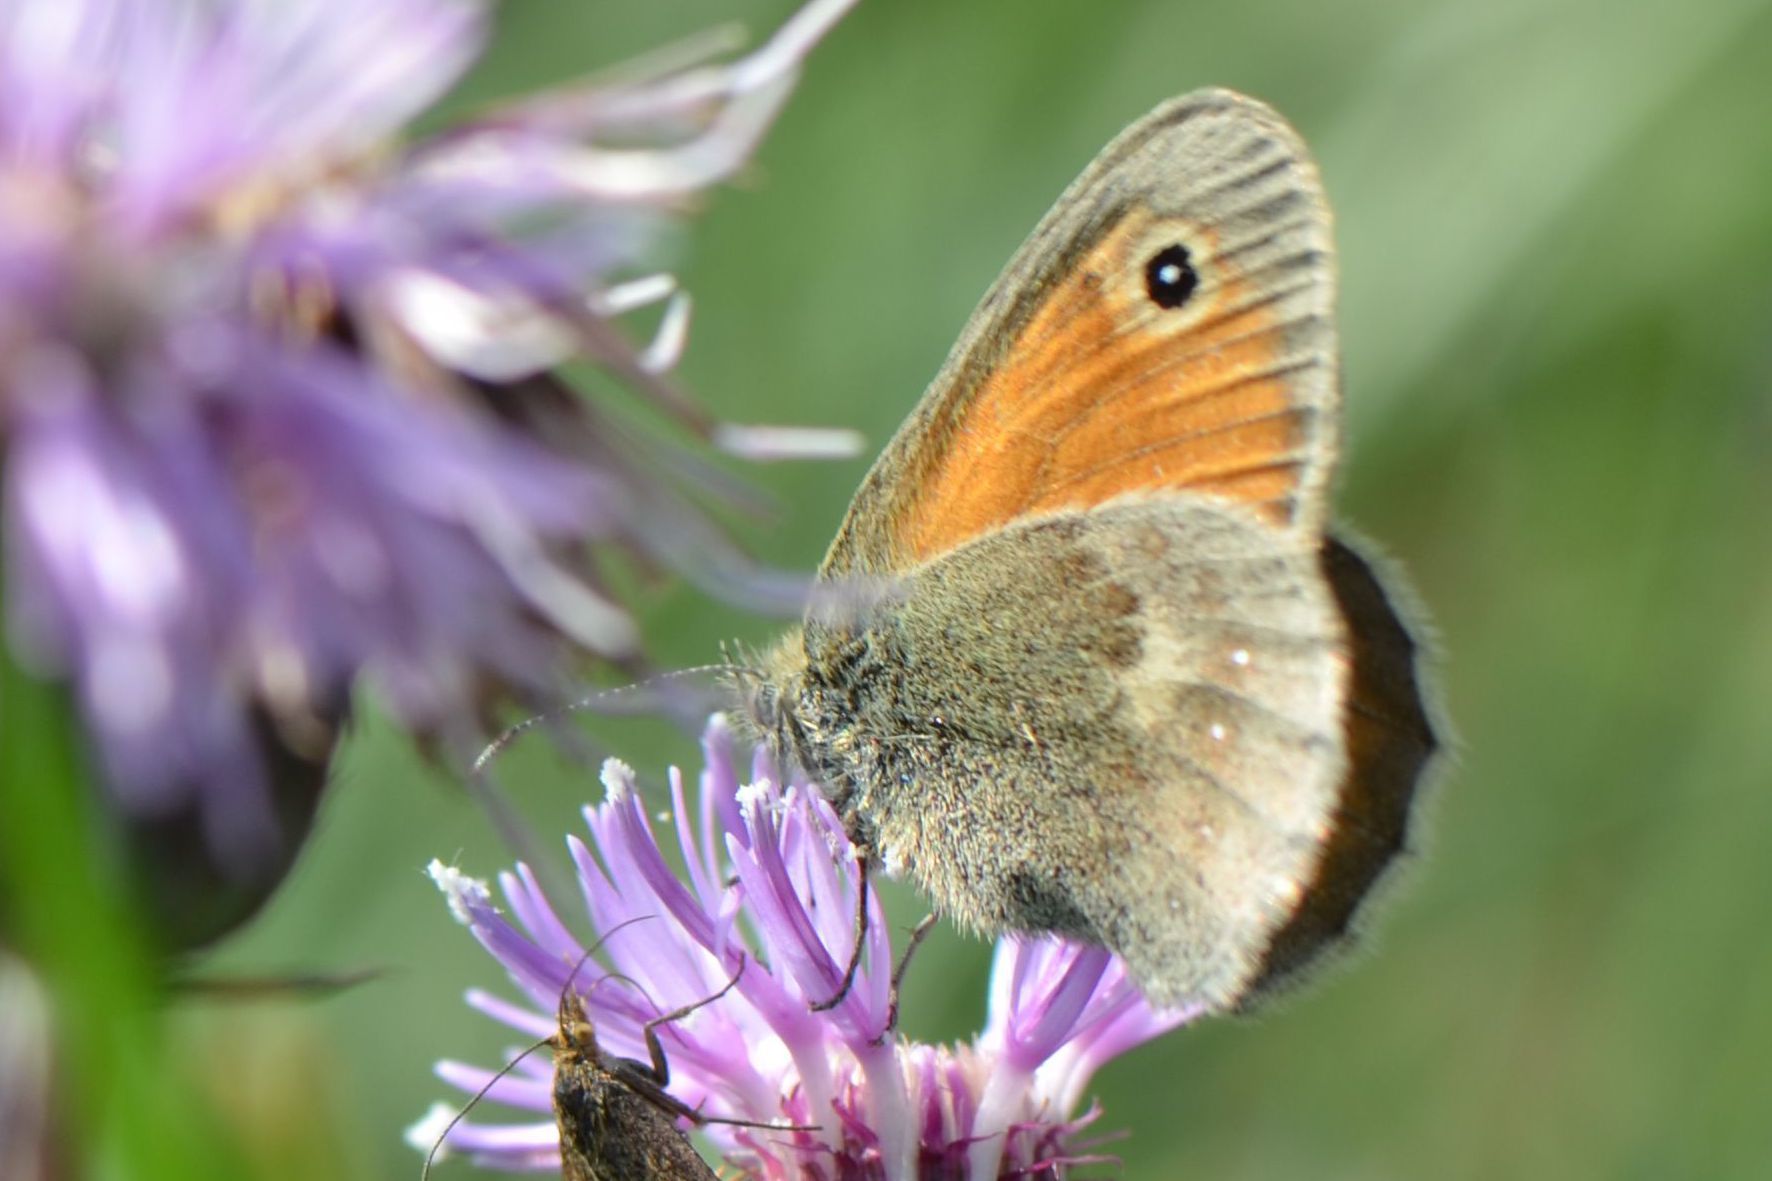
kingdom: Animalia
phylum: Arthropoda
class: Insecta
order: Lepidoptera
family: Nymphalidae
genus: Coenonympha
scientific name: Coenonympha pamphilus
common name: Small heath
